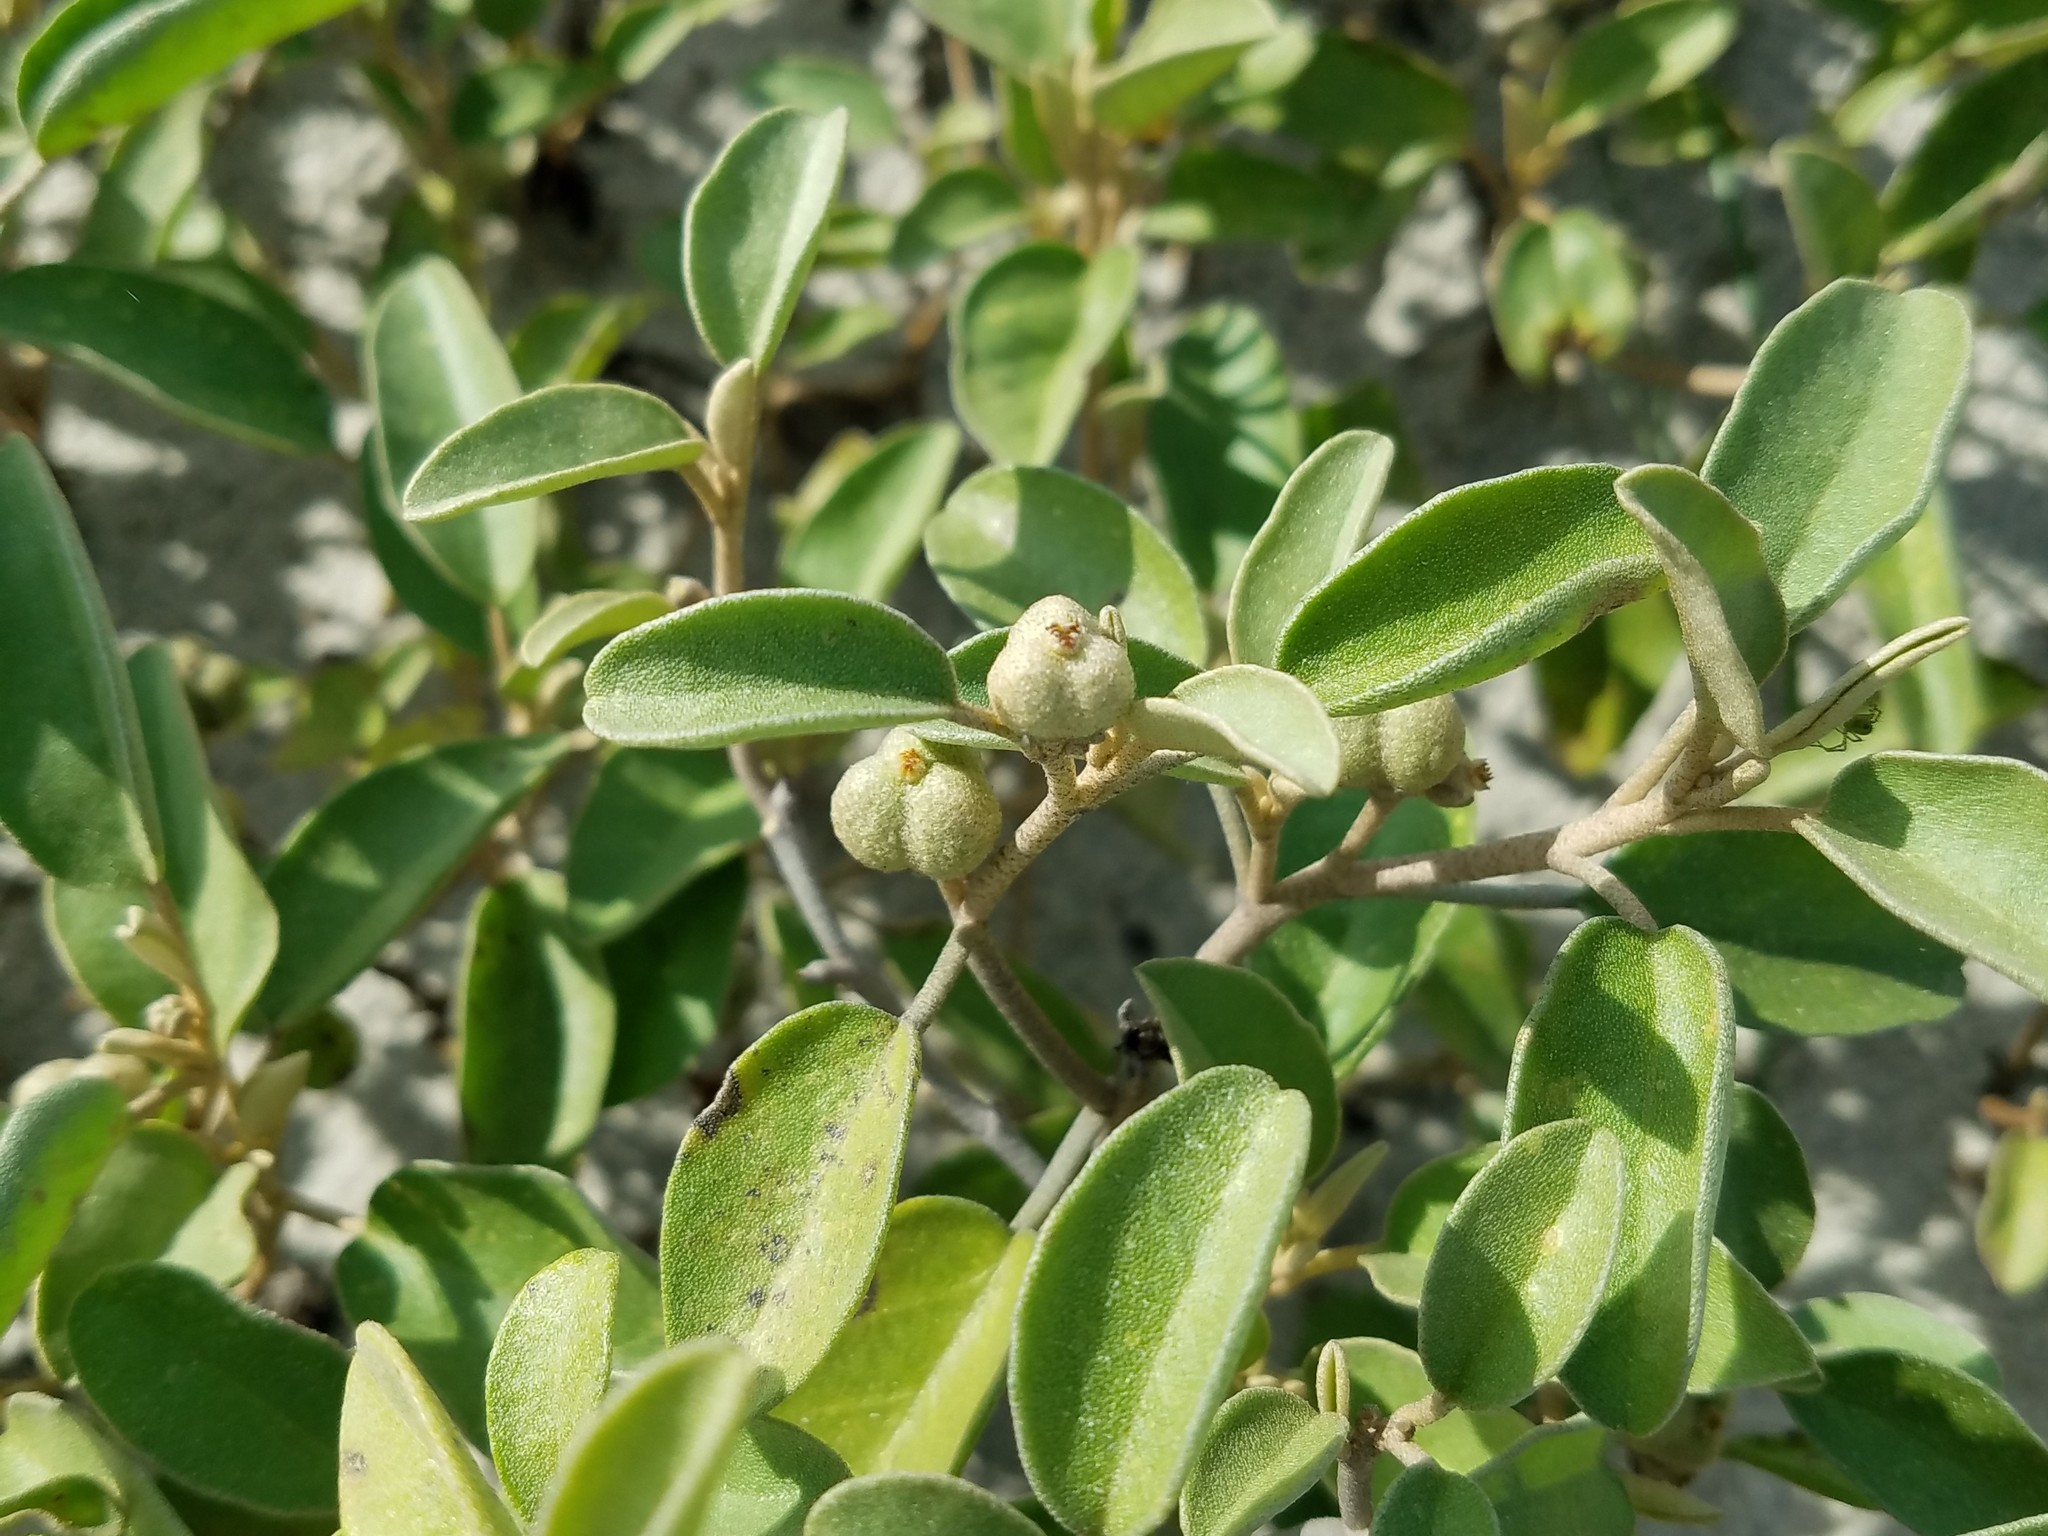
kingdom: Plantae
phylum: Tracheophyta
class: Magnoliopsida
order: Malpighiales
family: Euphorbiaceae
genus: Croton
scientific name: Croton punctatus
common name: Beach-tea
